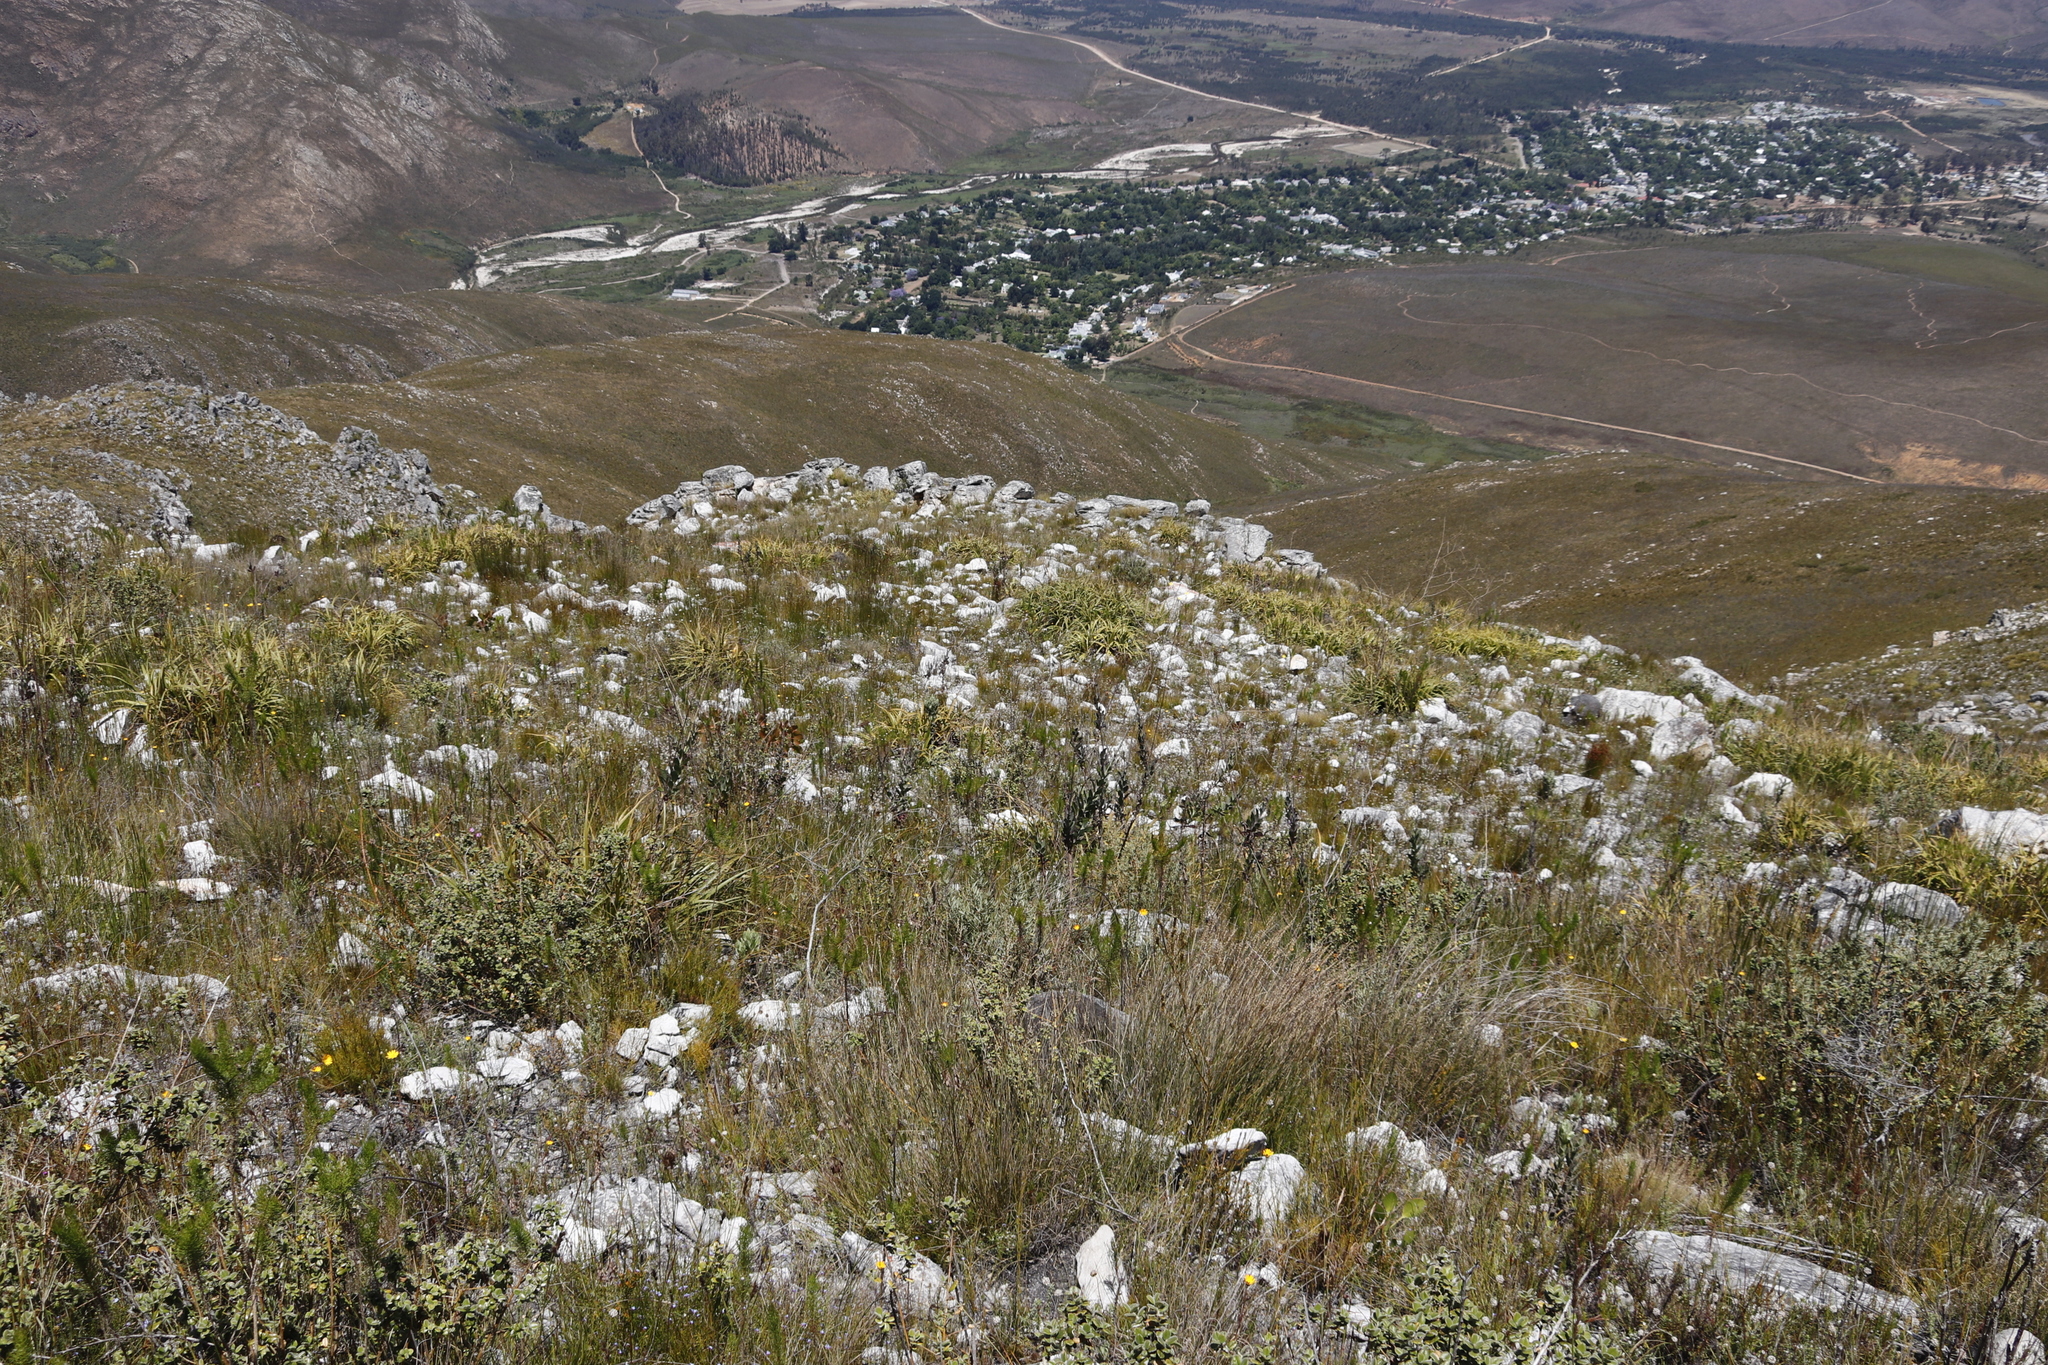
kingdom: Plantae
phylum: Tracheophyta
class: Magnoliopsida
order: Asterales
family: Asteraceae
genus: Othonna
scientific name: Othonna quinquedentata
